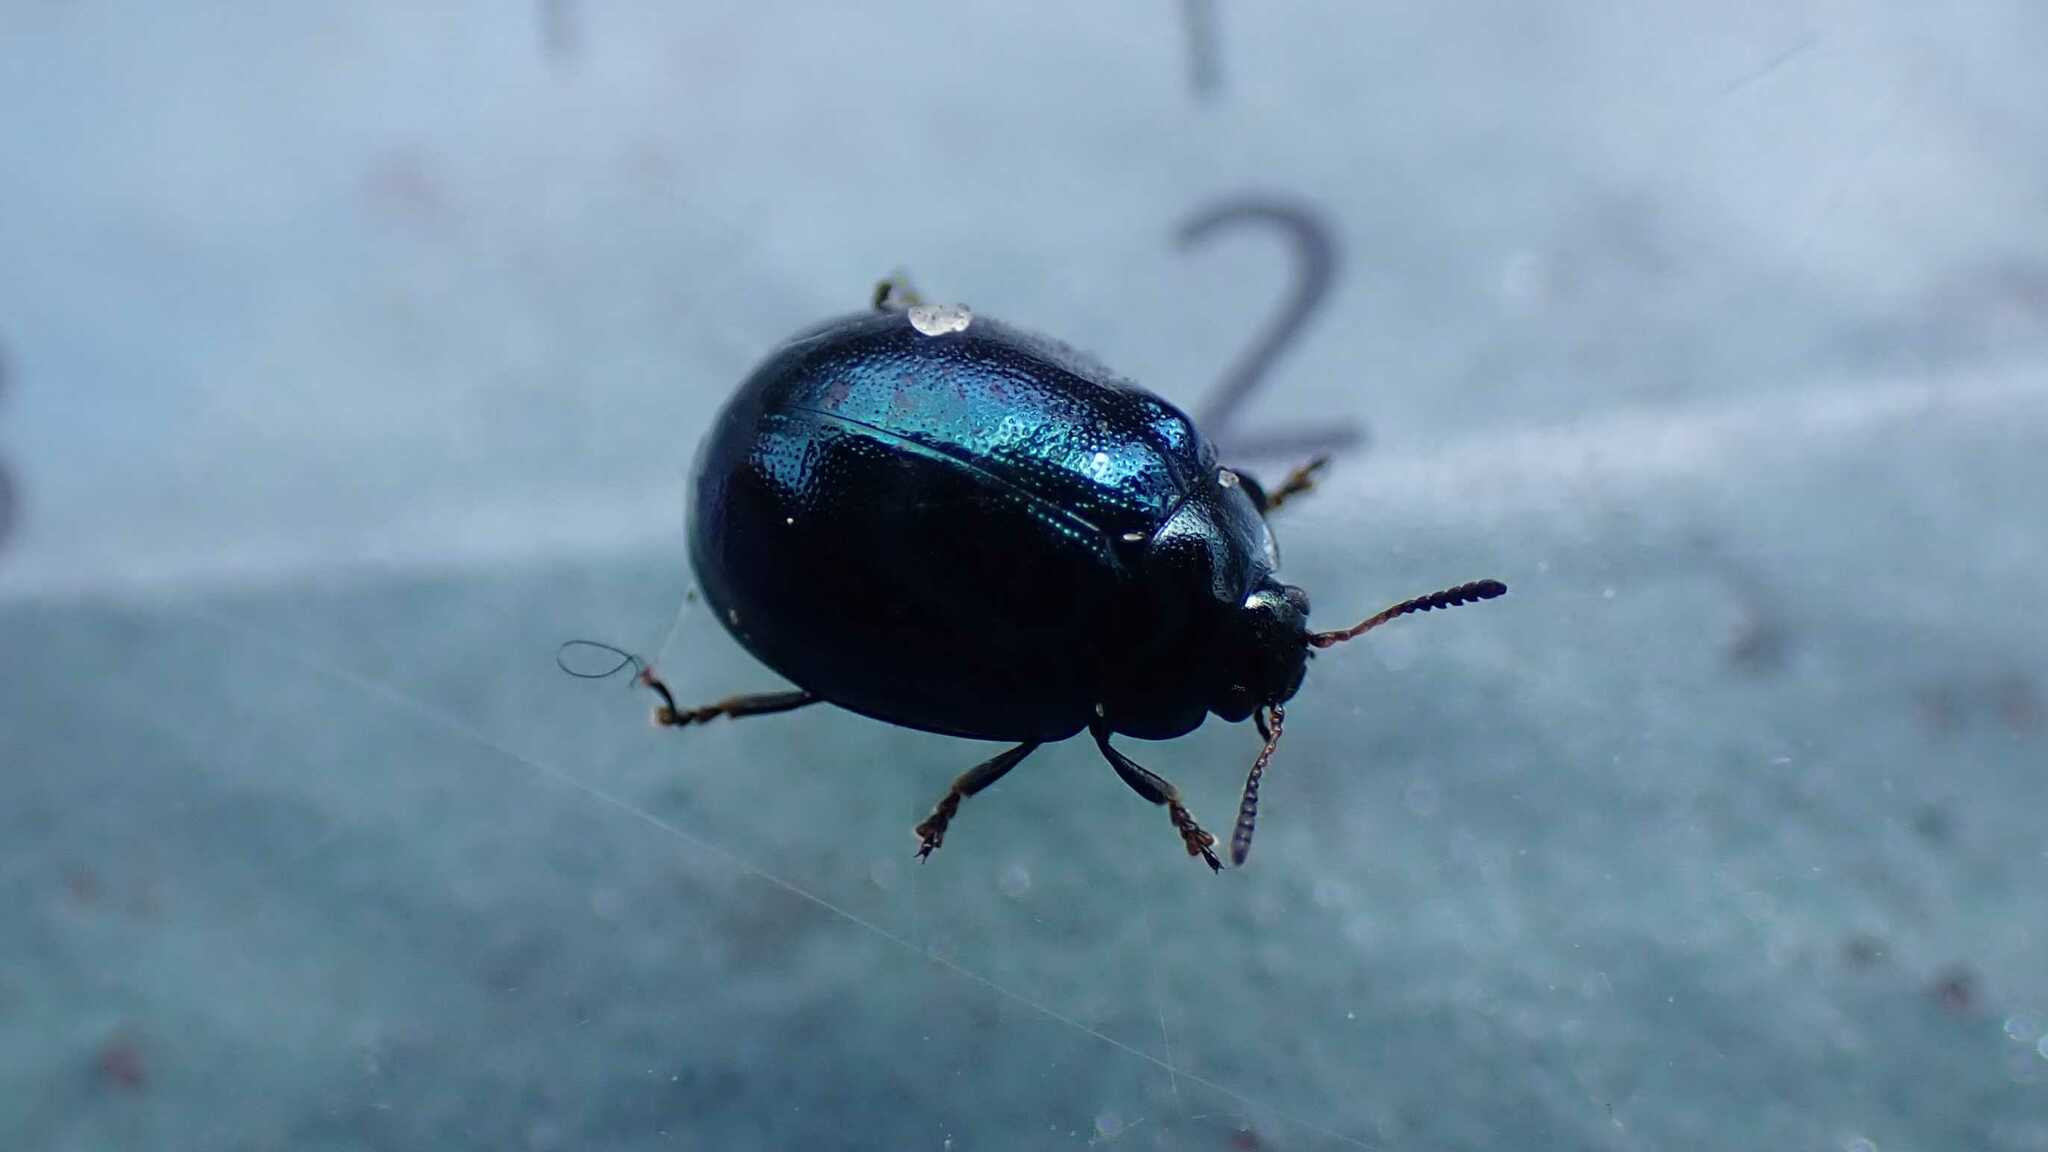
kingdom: Animalia
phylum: Arthropoda
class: Insecta
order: Coleoptera
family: Chrysomelidae
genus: Plagiodera
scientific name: Plagiodera versicolora
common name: Imported willow leaf beetle
